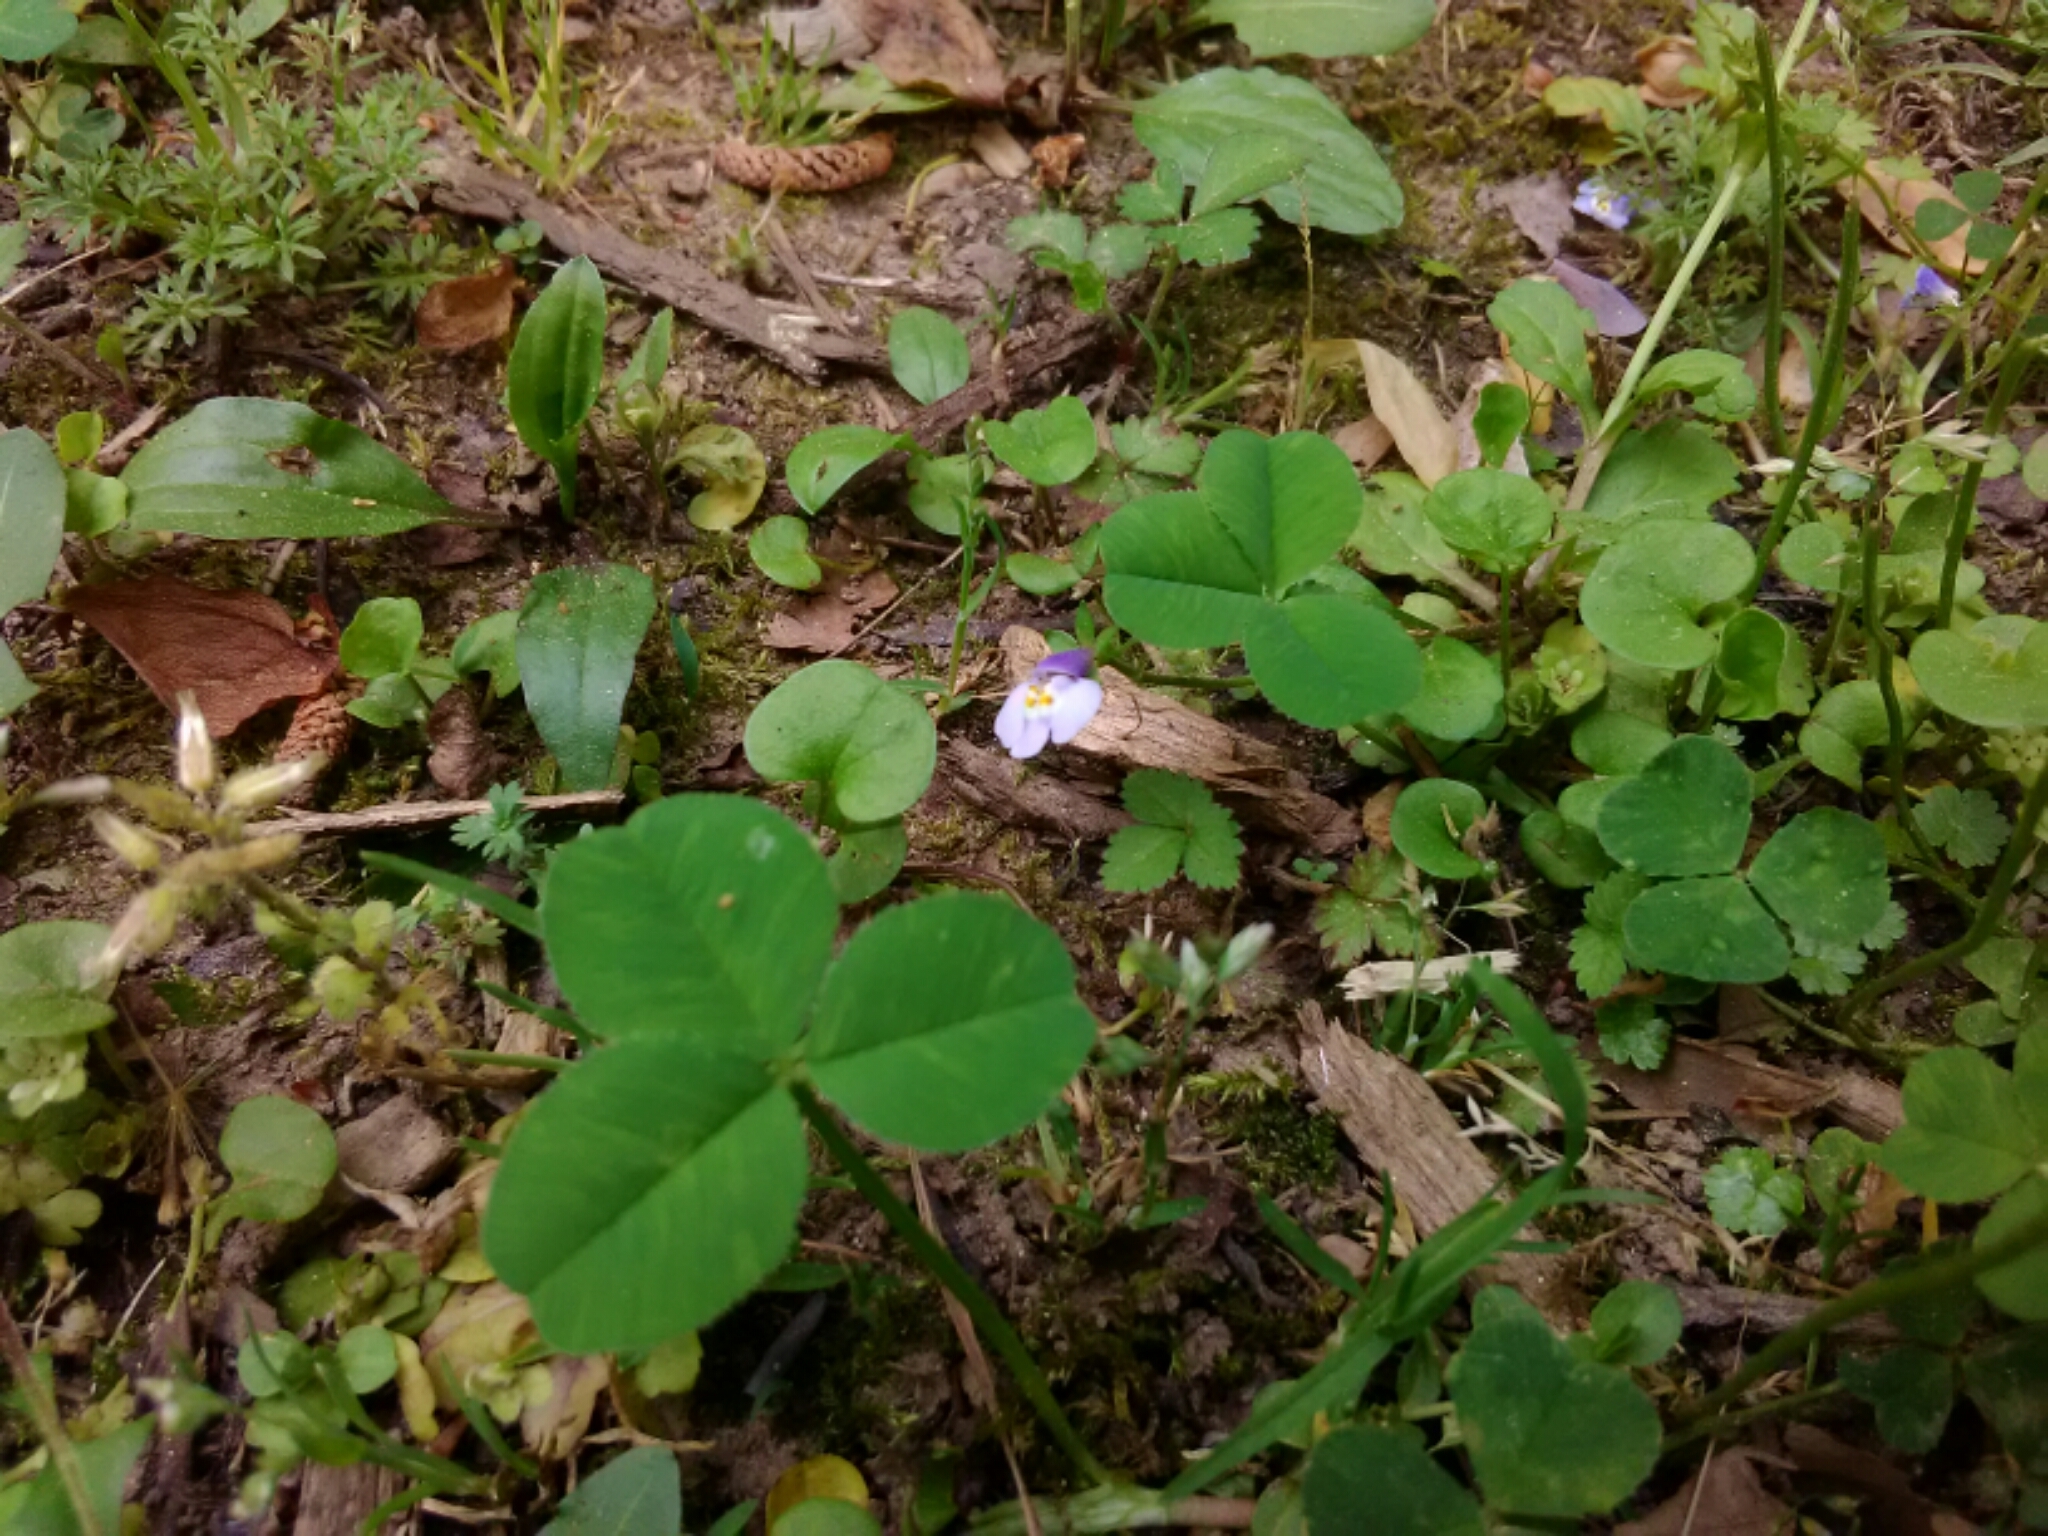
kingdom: Plantae
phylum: Tracheophyta
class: Magnoliopsida
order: Lamiales
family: Mazaceae
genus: Mazus
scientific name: Mazus pumilus
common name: Japanese mazus
